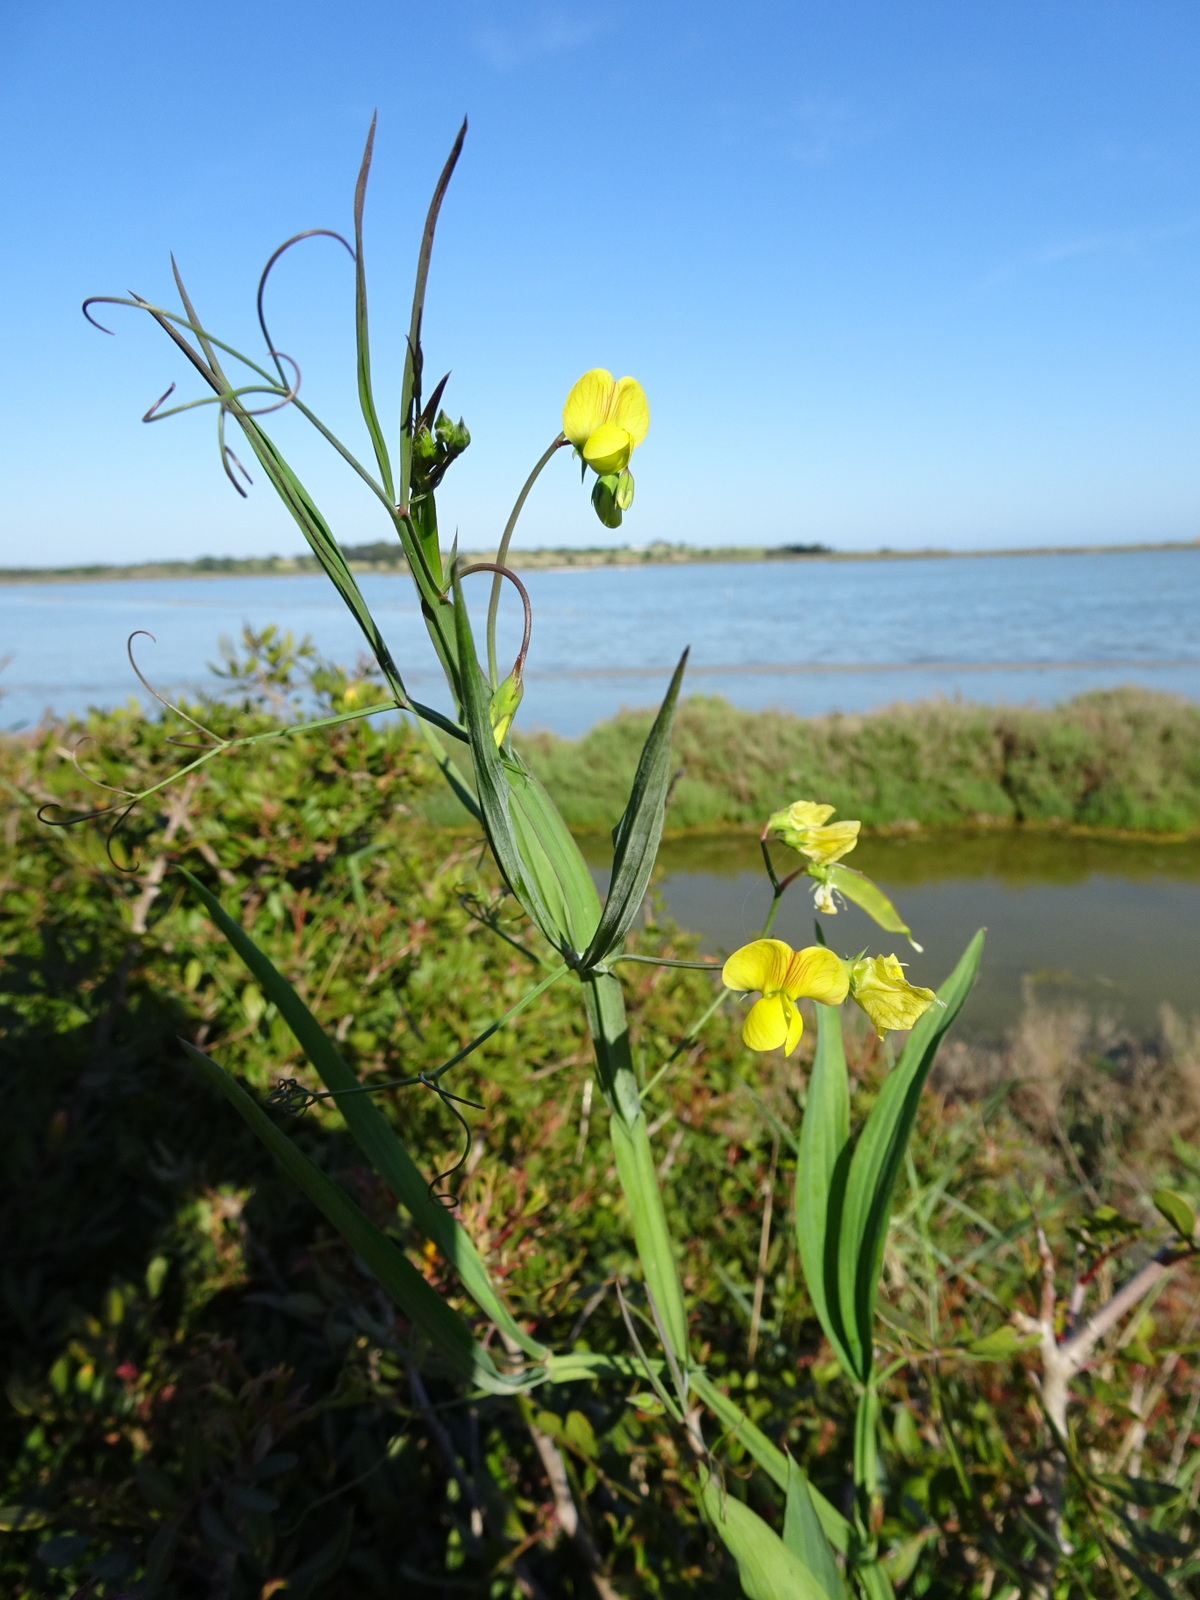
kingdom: Plantae
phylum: Tracheophyta
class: Magnoliopsida
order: Fabales
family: Fabaceae
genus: Lathyrus
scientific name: Lathyrus annuus
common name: Fodder pea
